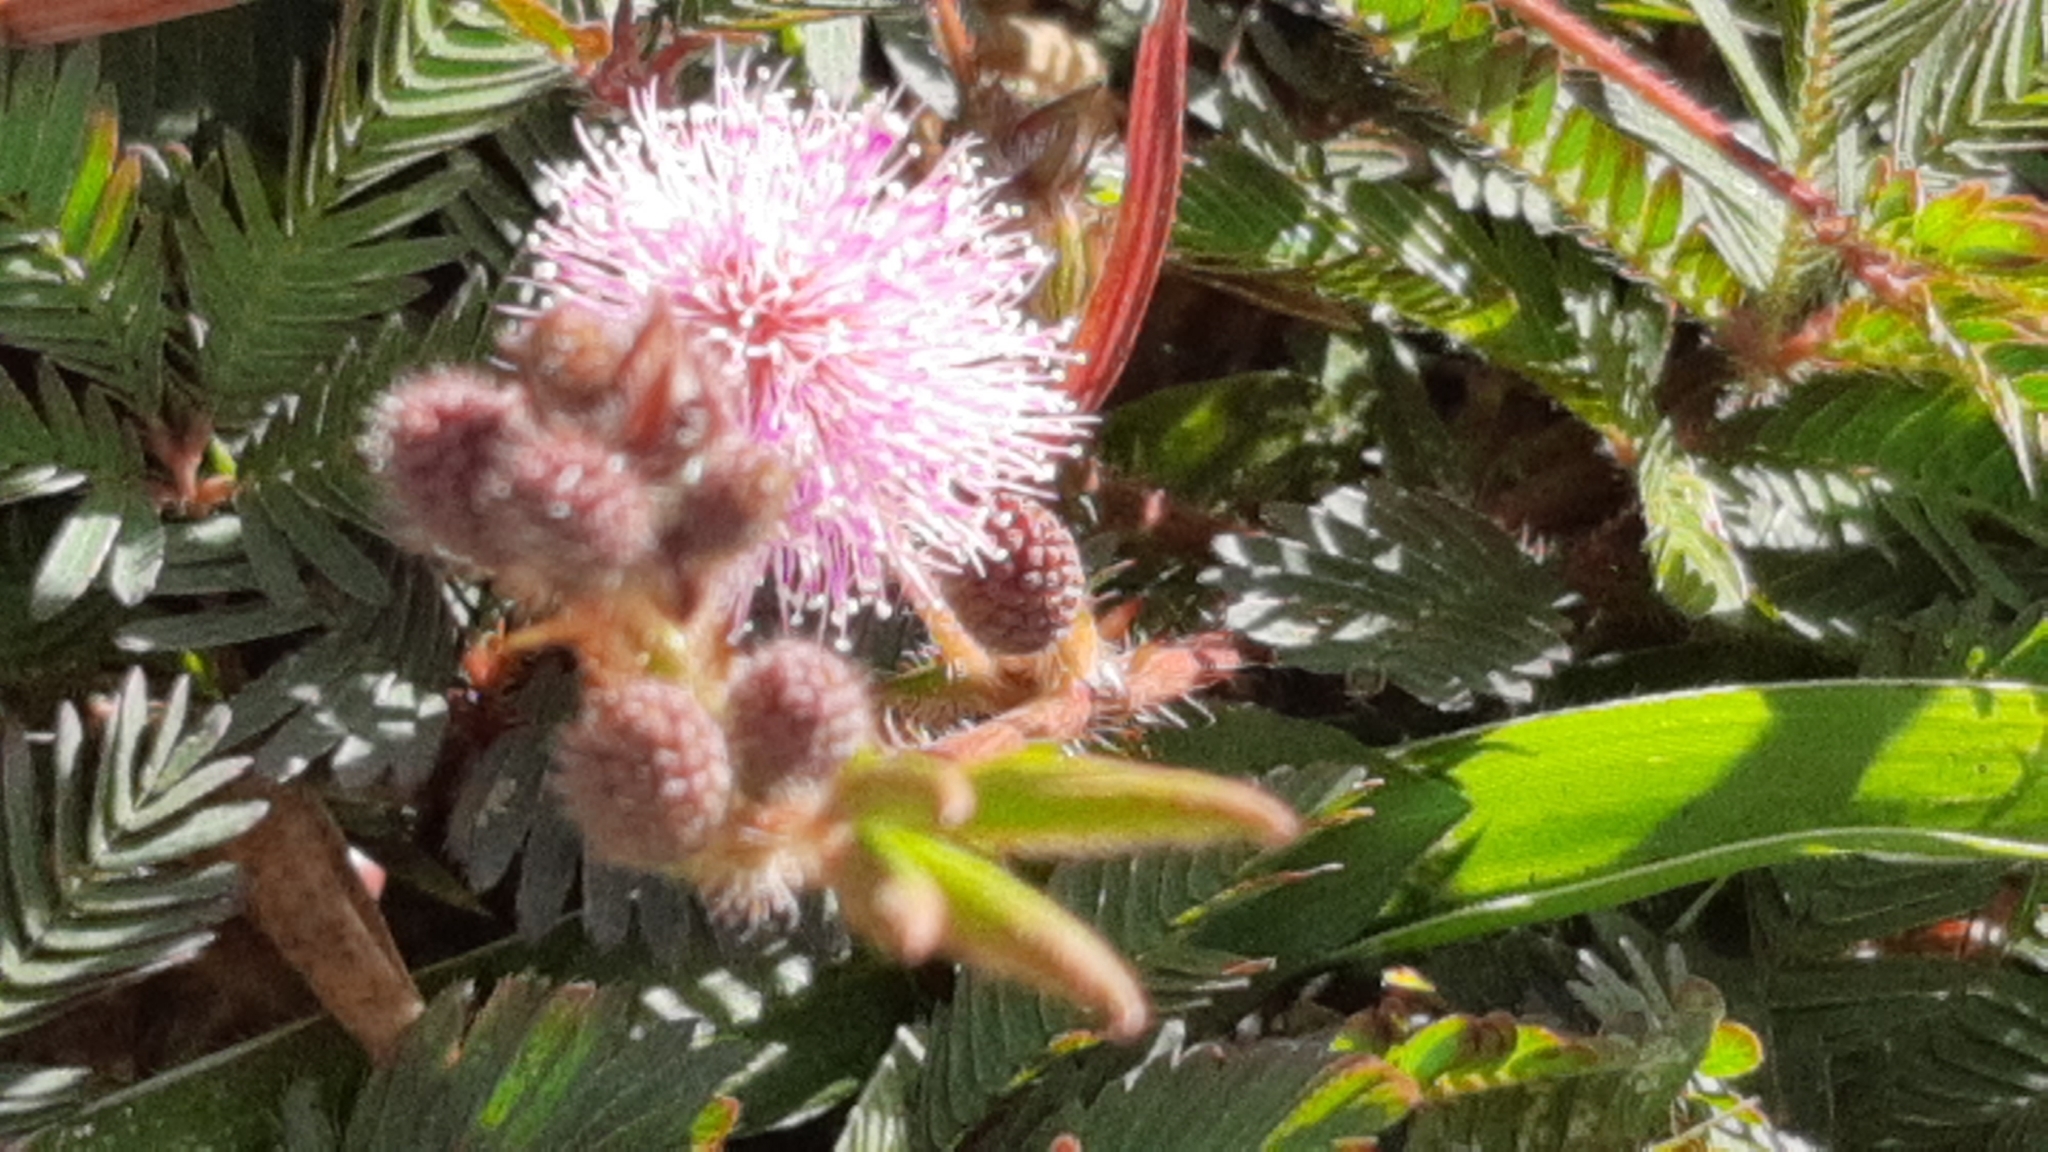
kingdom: Plantae
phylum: Tracheophyta
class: Magnoliopsida
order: Fabales
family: Fabaceae
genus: Mimosa
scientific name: Mimosa pudica
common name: Sensitive plant
